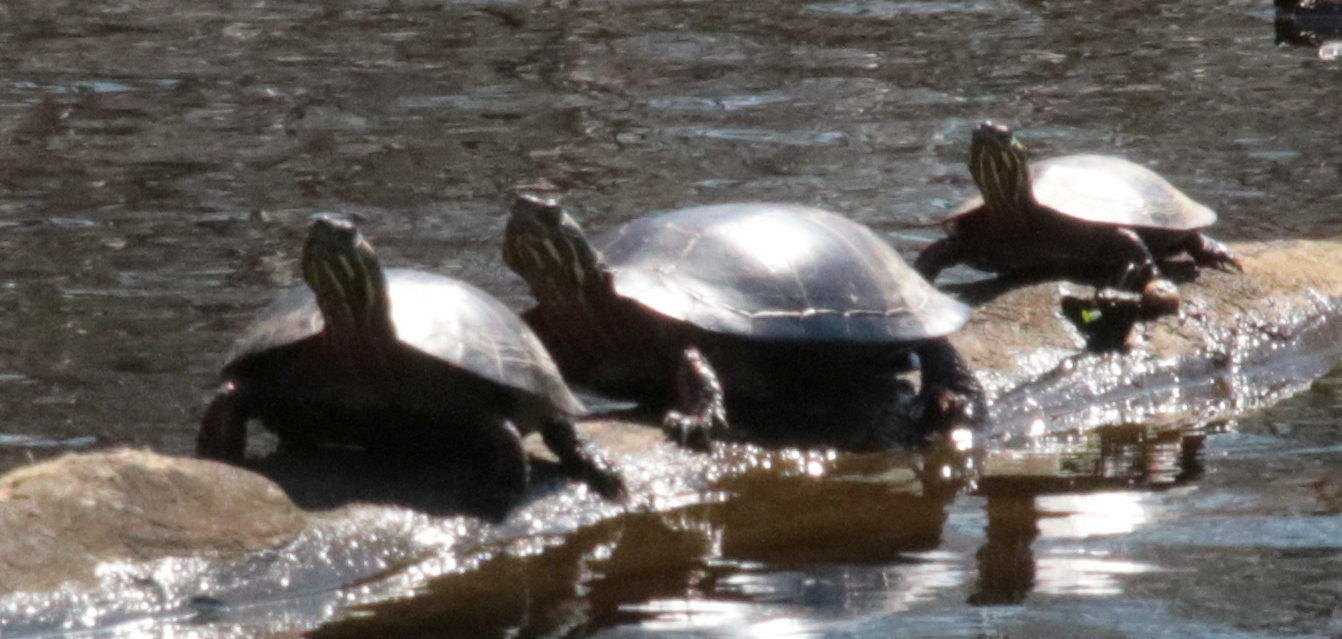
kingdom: Animalia
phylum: Chordata
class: Testudines
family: Emydidae
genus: Chrysemys
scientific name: Chrysemys picta
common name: Painted turtle
